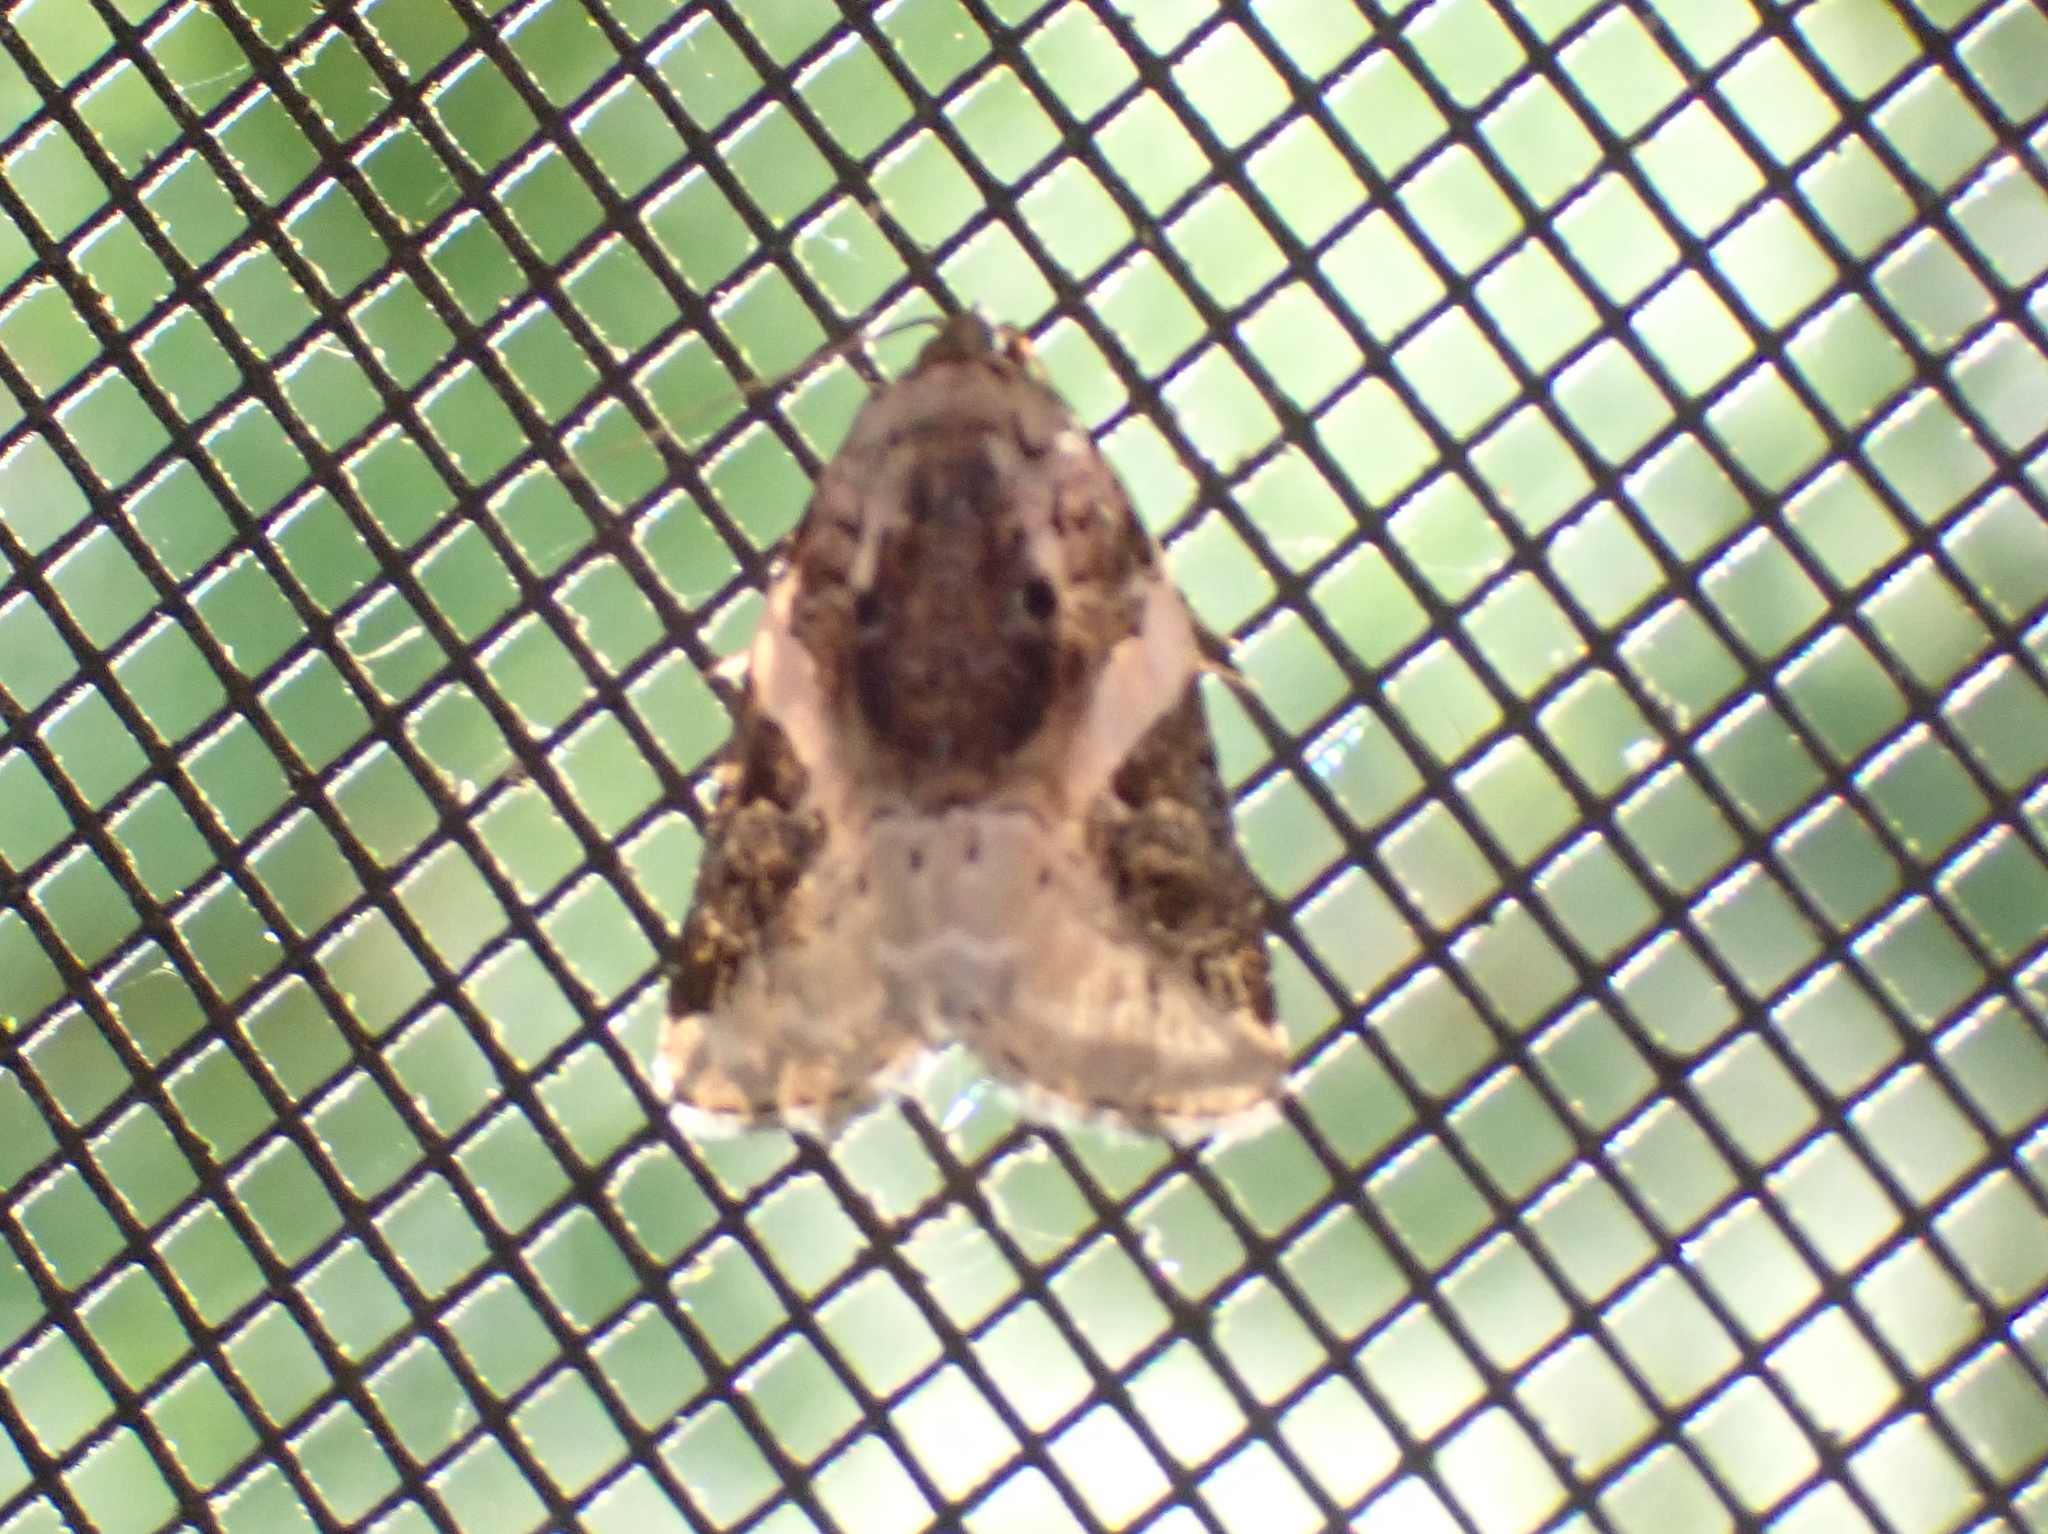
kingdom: Animalia
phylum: Arthropoda
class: Insecta
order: Lepidoptera
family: Noctuidae
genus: Pseudeustrotia
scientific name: Pseudeustrotia carneola
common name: Pink-barred lithacodia moth
